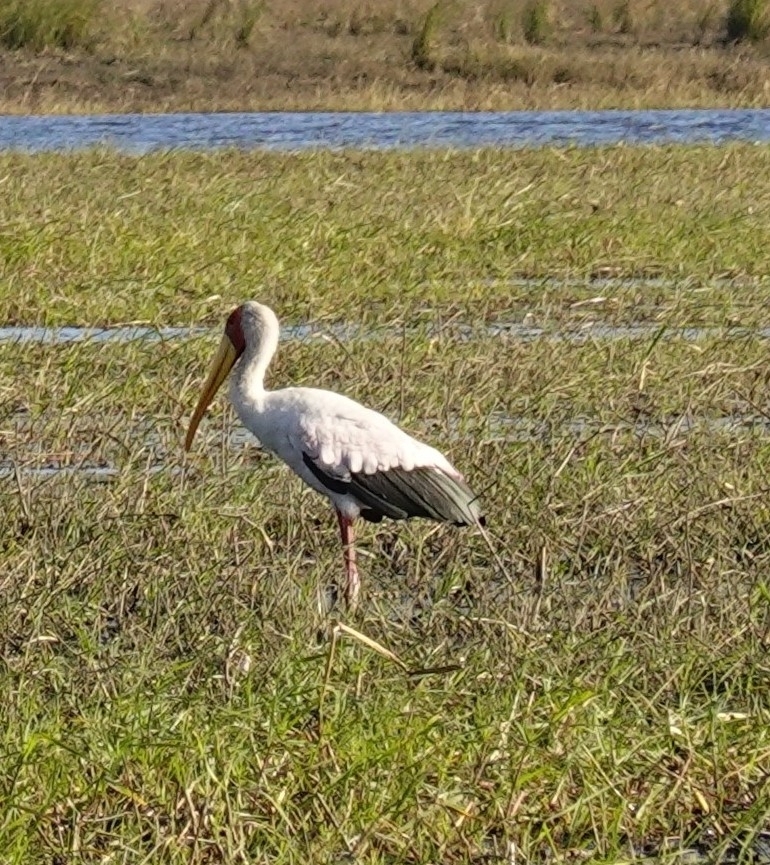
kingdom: Animalia
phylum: Chordata
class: Aves
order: Ciconiiformes
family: Ciconiidae
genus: Mycteria
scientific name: Mycteria ibis
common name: Yellow-billed stork
